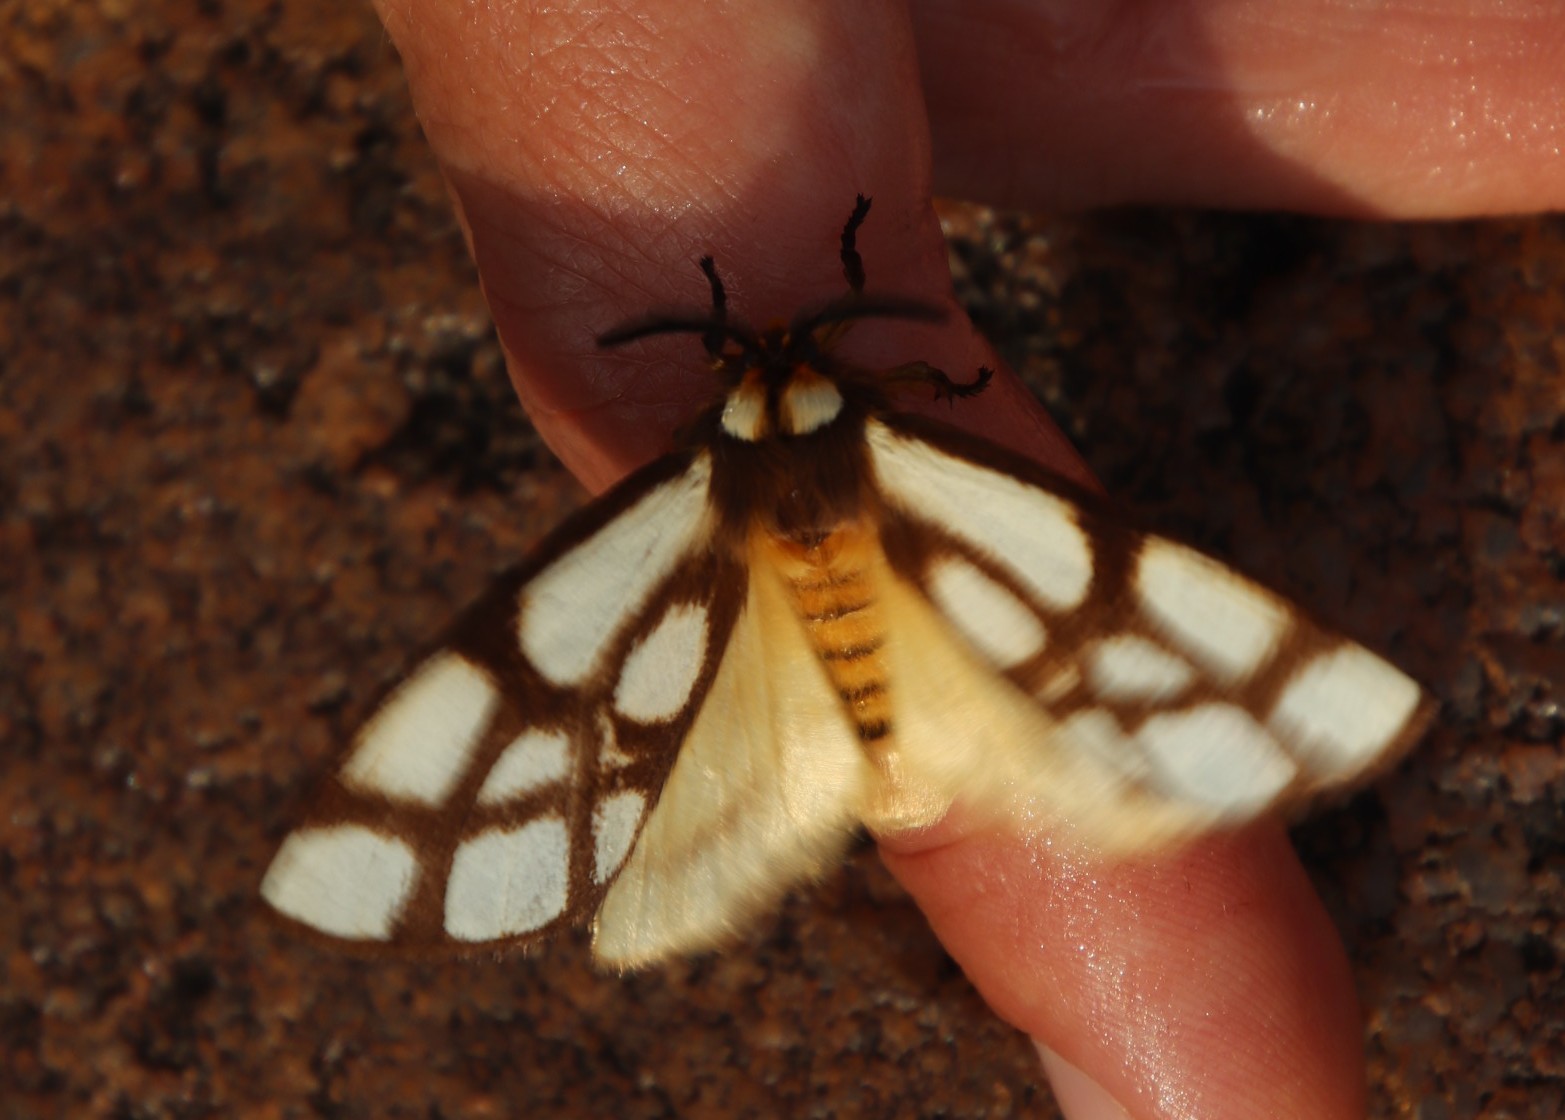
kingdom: Animalia
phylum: Arthropoda
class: Insecta
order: Lepidoptera
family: Notodontidae
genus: Anaphe
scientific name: Anaphe reticulata
